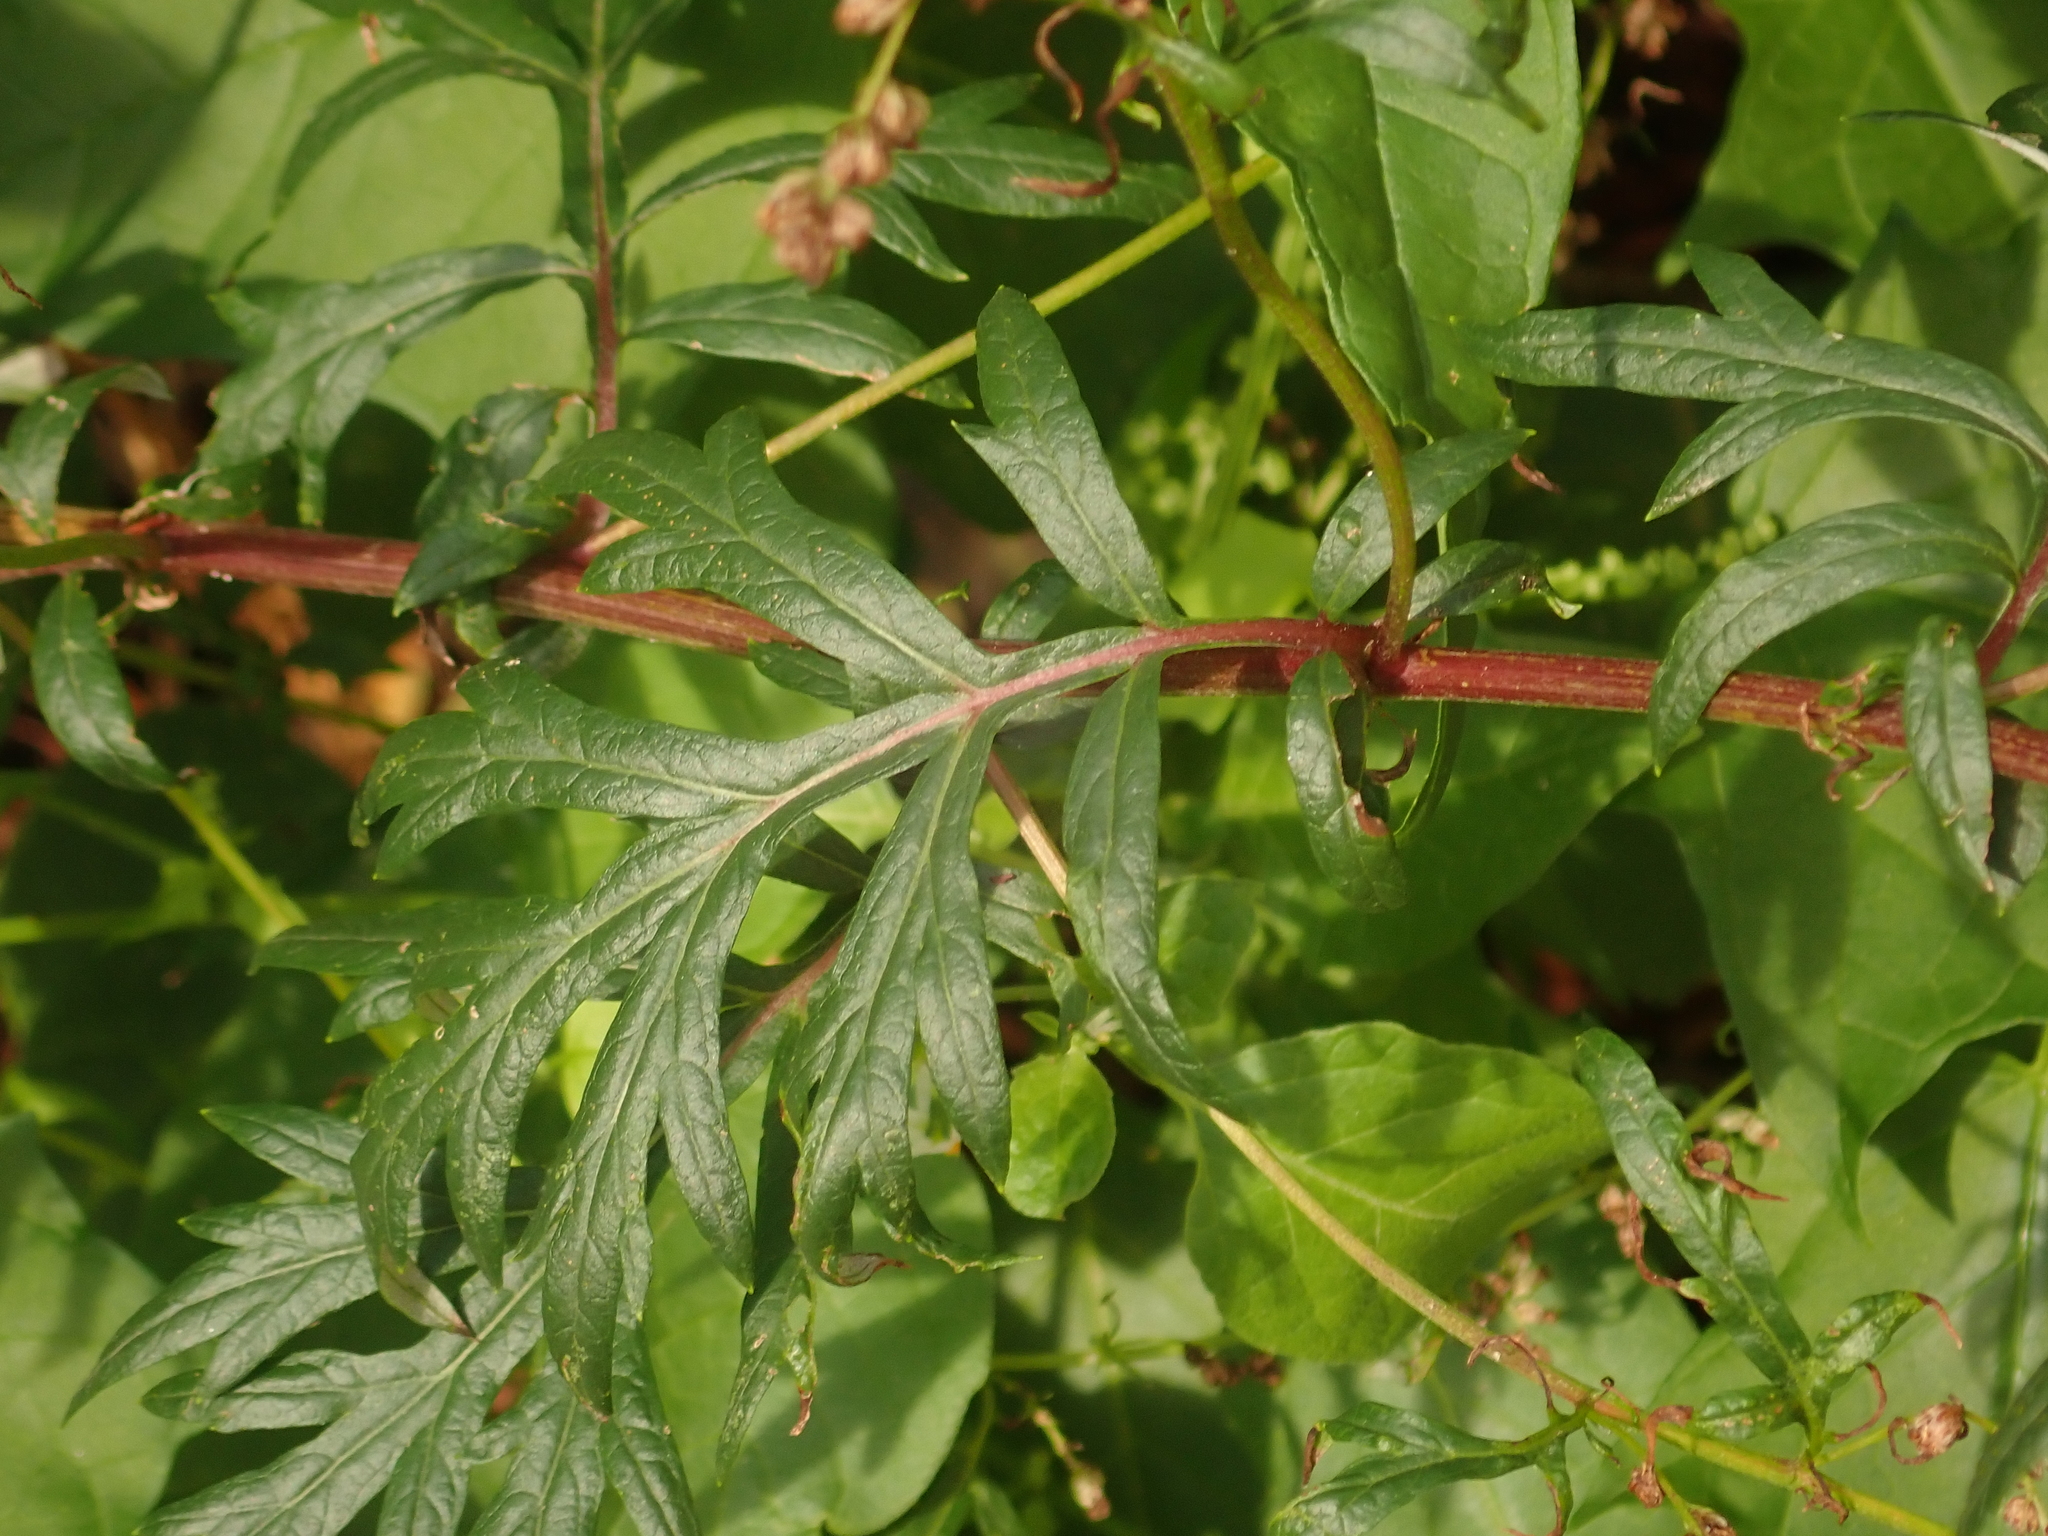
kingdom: Plantae
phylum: Tracheophyta
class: Magnoliopsida
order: Asterales
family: Asteraceae
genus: Artemisia
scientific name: Artemisia vulgaris
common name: Mugwort
